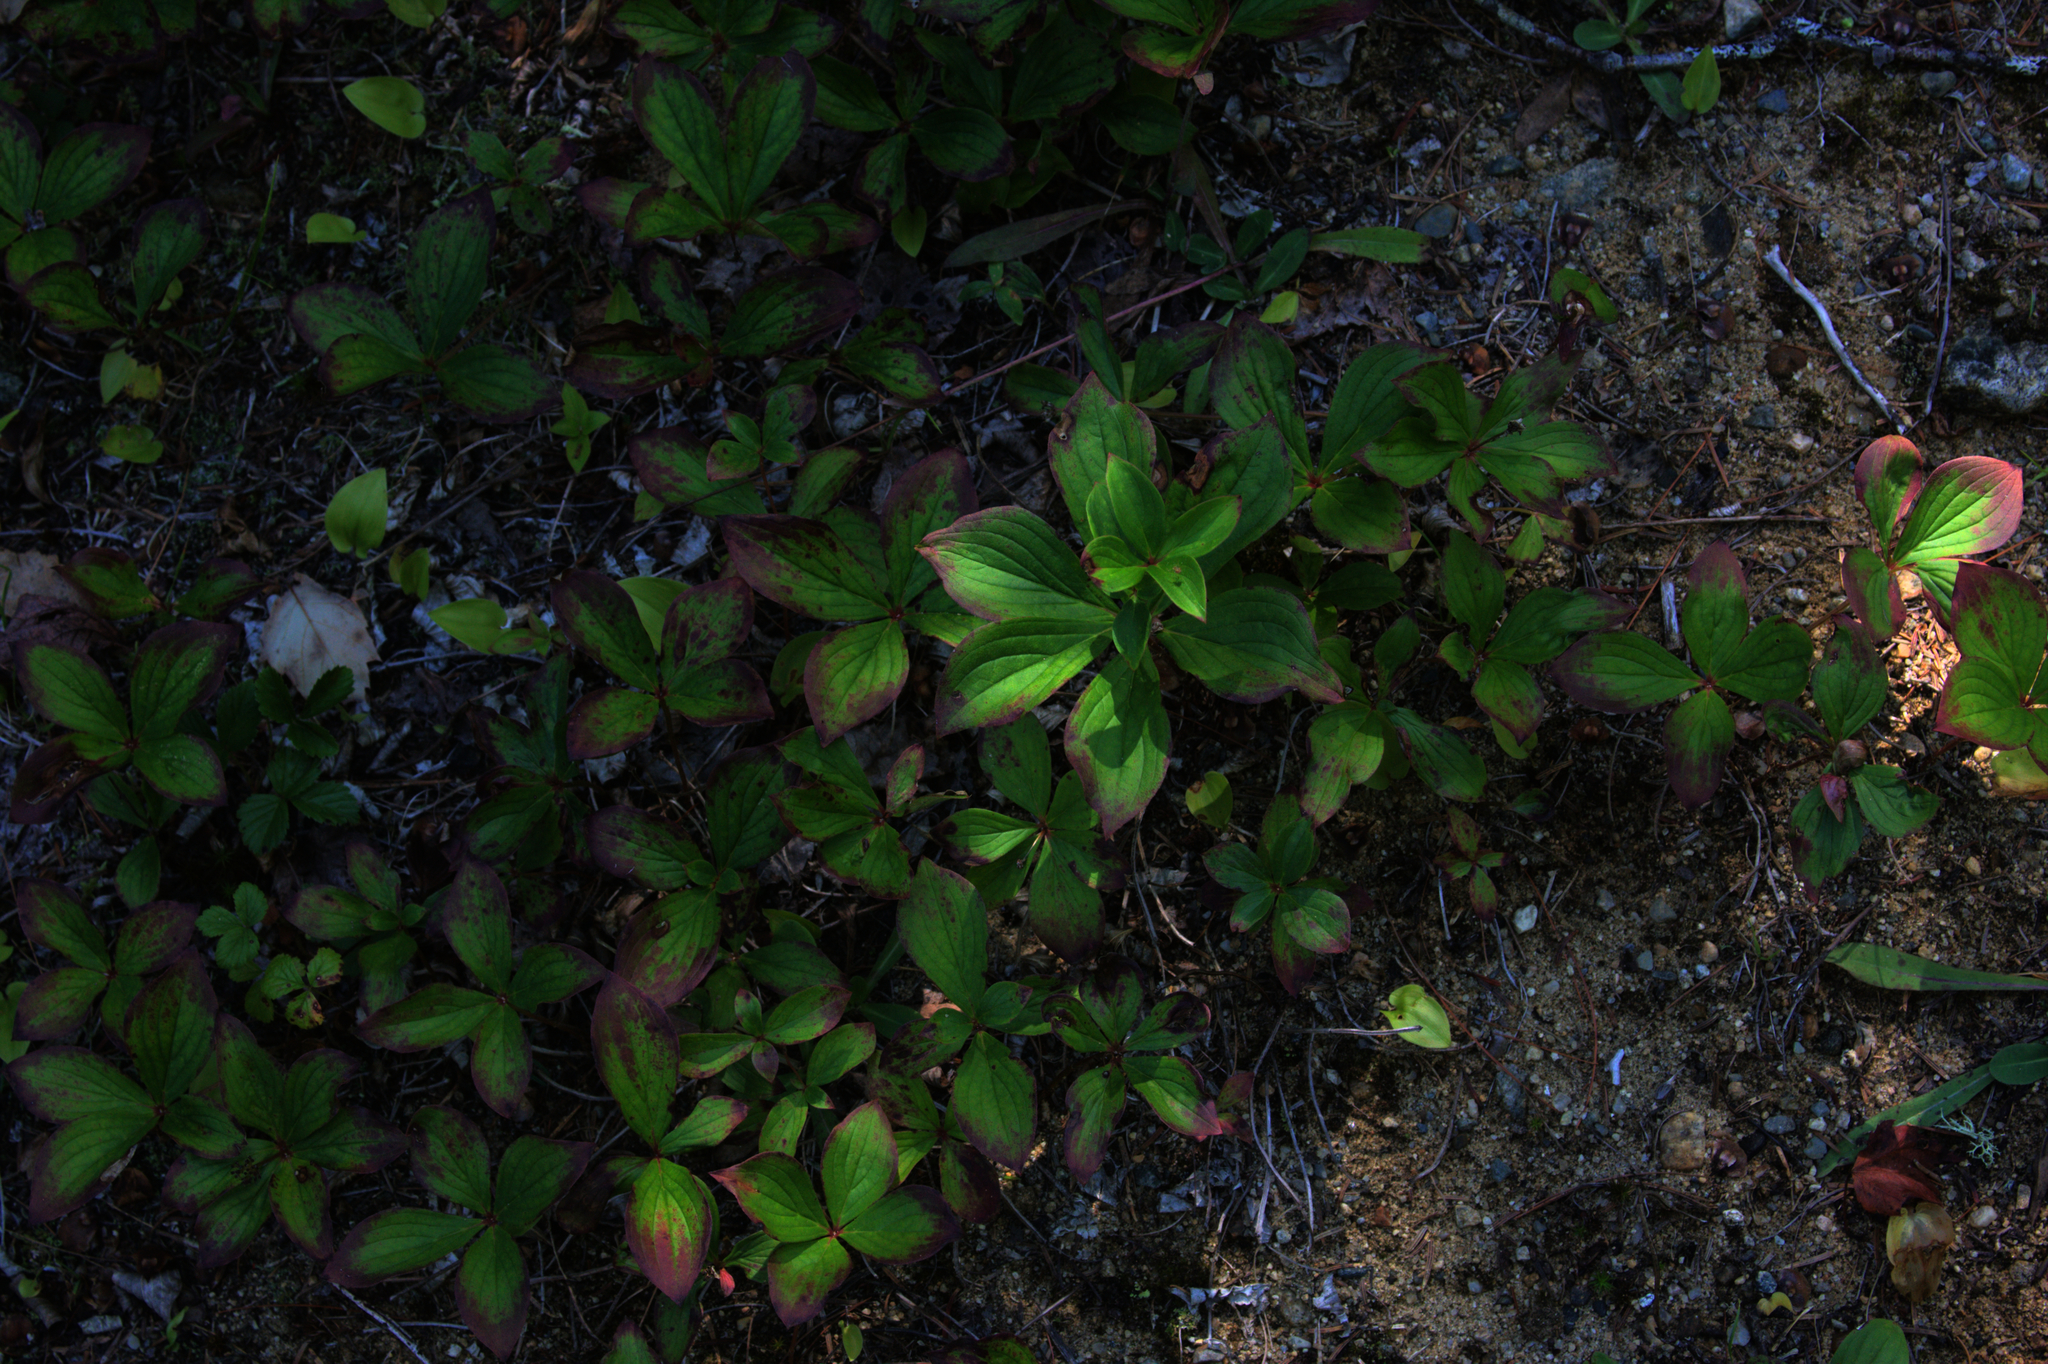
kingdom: Plantae
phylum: Tracheophyta
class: Magnoliopsida
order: Cornales
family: Cornaceae
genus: Cornus
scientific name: Cornus canadensis
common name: Creeping dogwood
